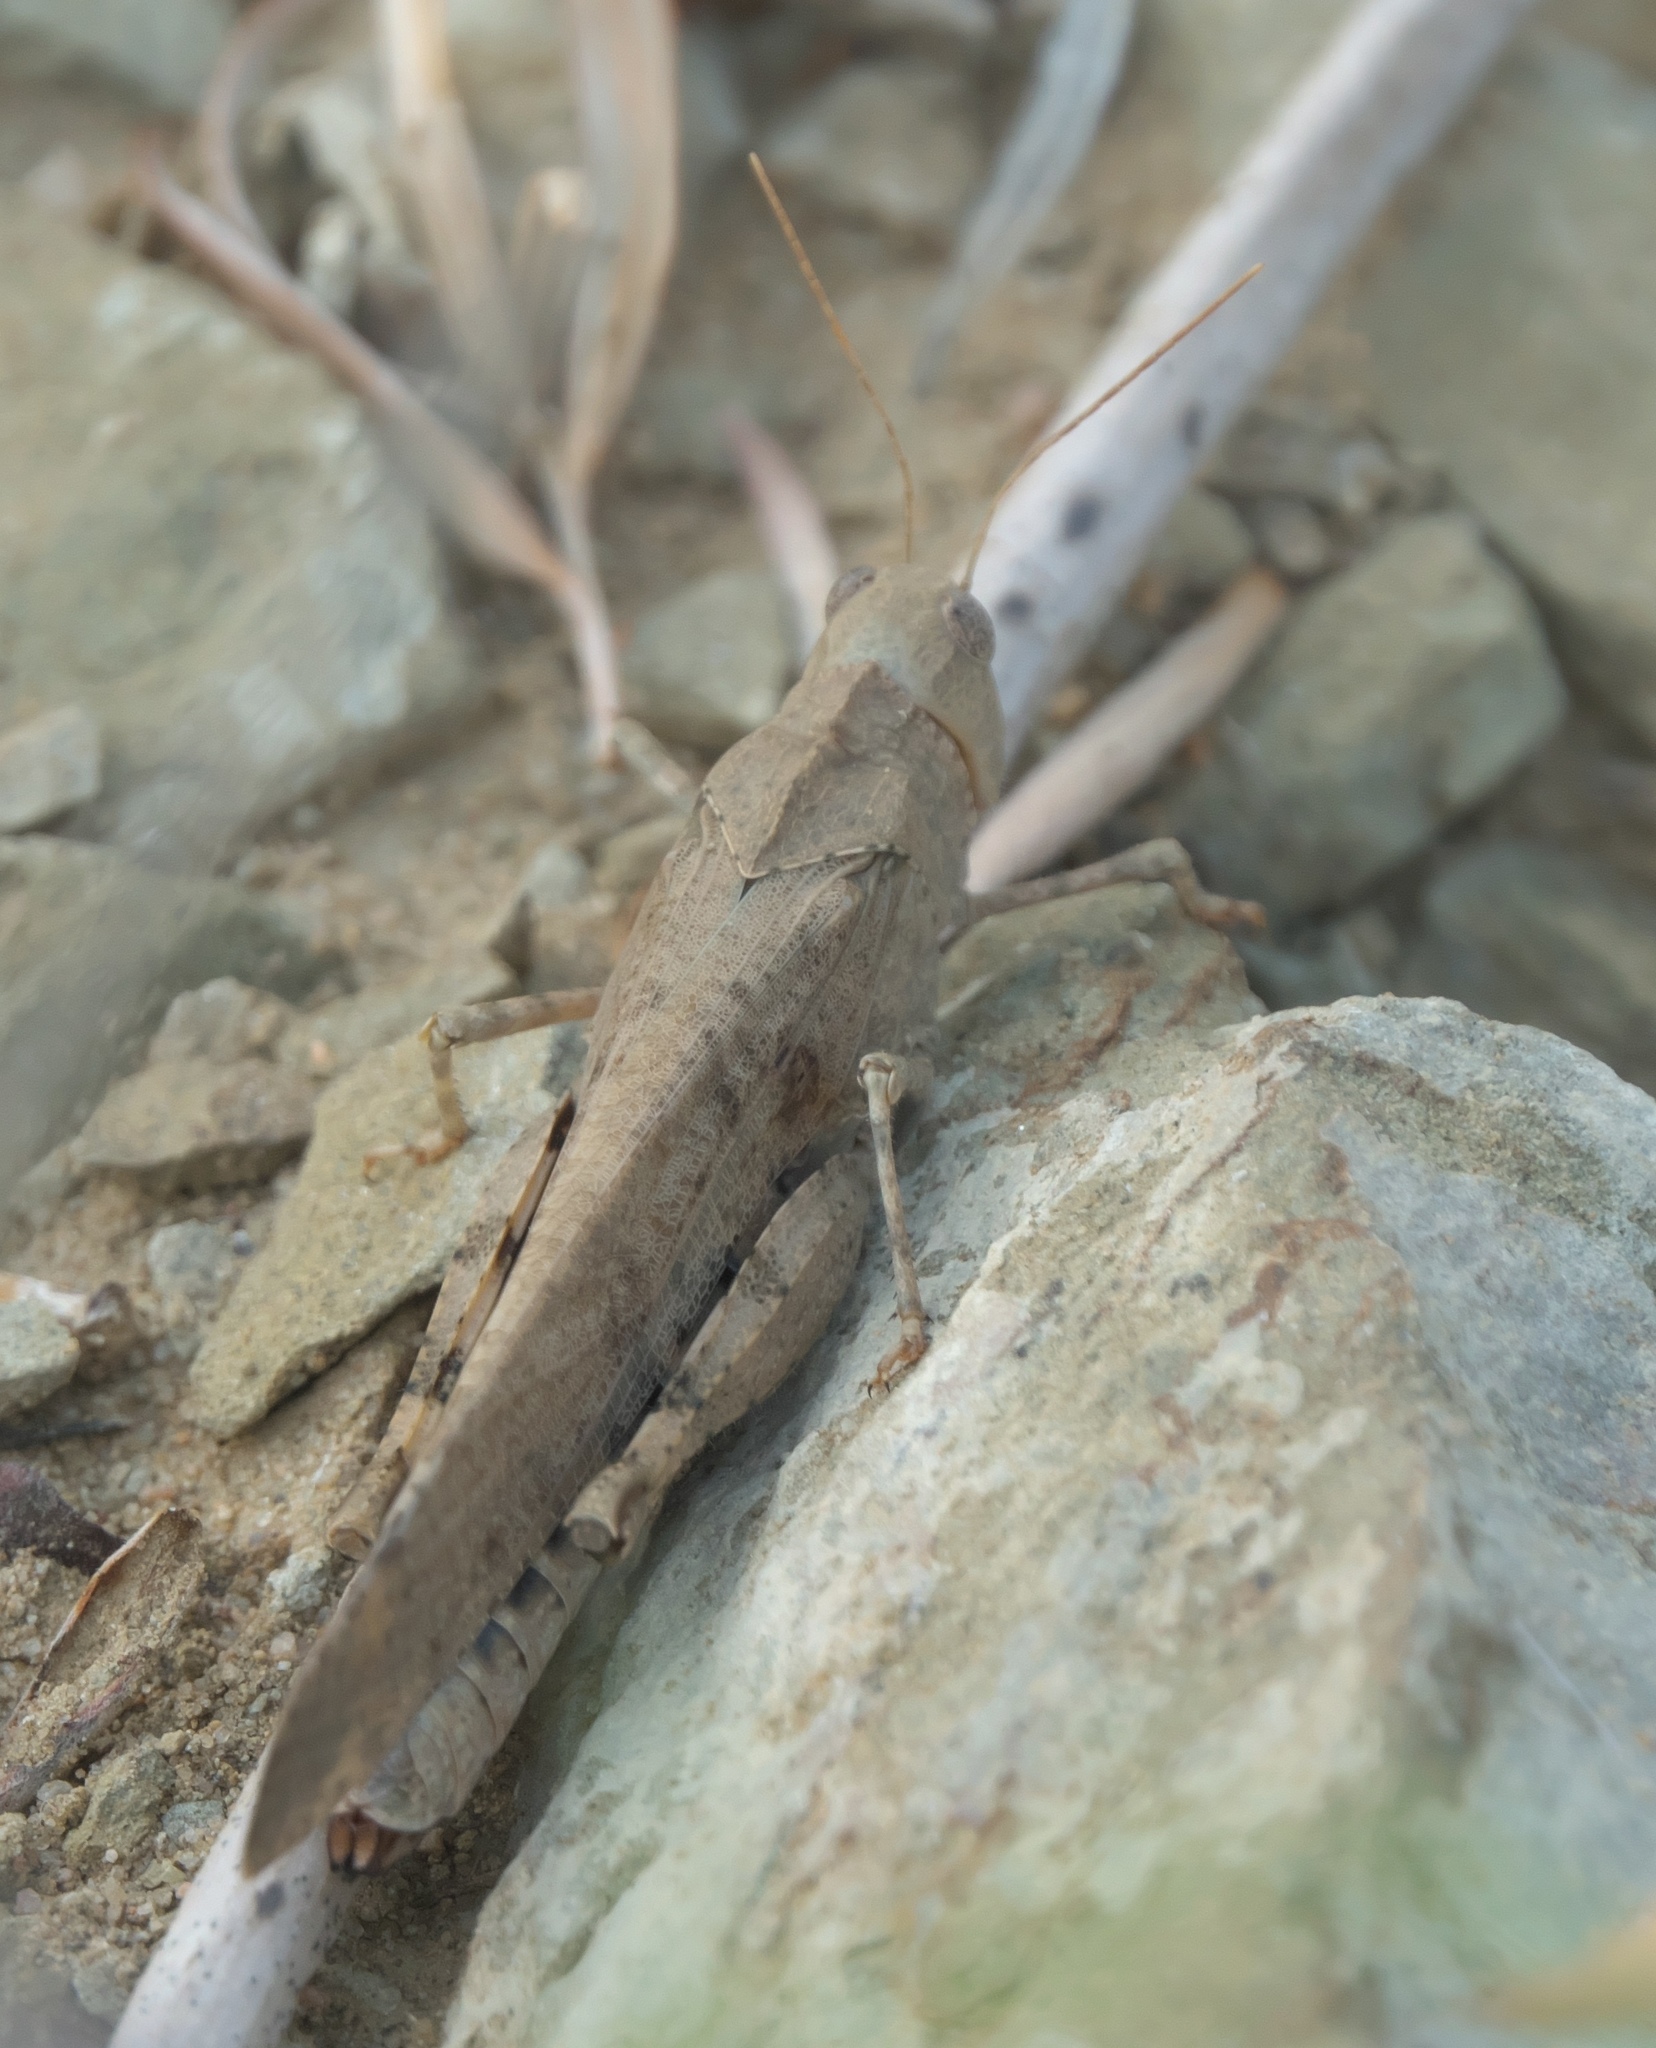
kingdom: Animalia
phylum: Arthropoda
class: Insecta
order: Orthoptera
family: Acrididae
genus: Dissosteira
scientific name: Dissosteira carolina
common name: Carolina grasshopper
